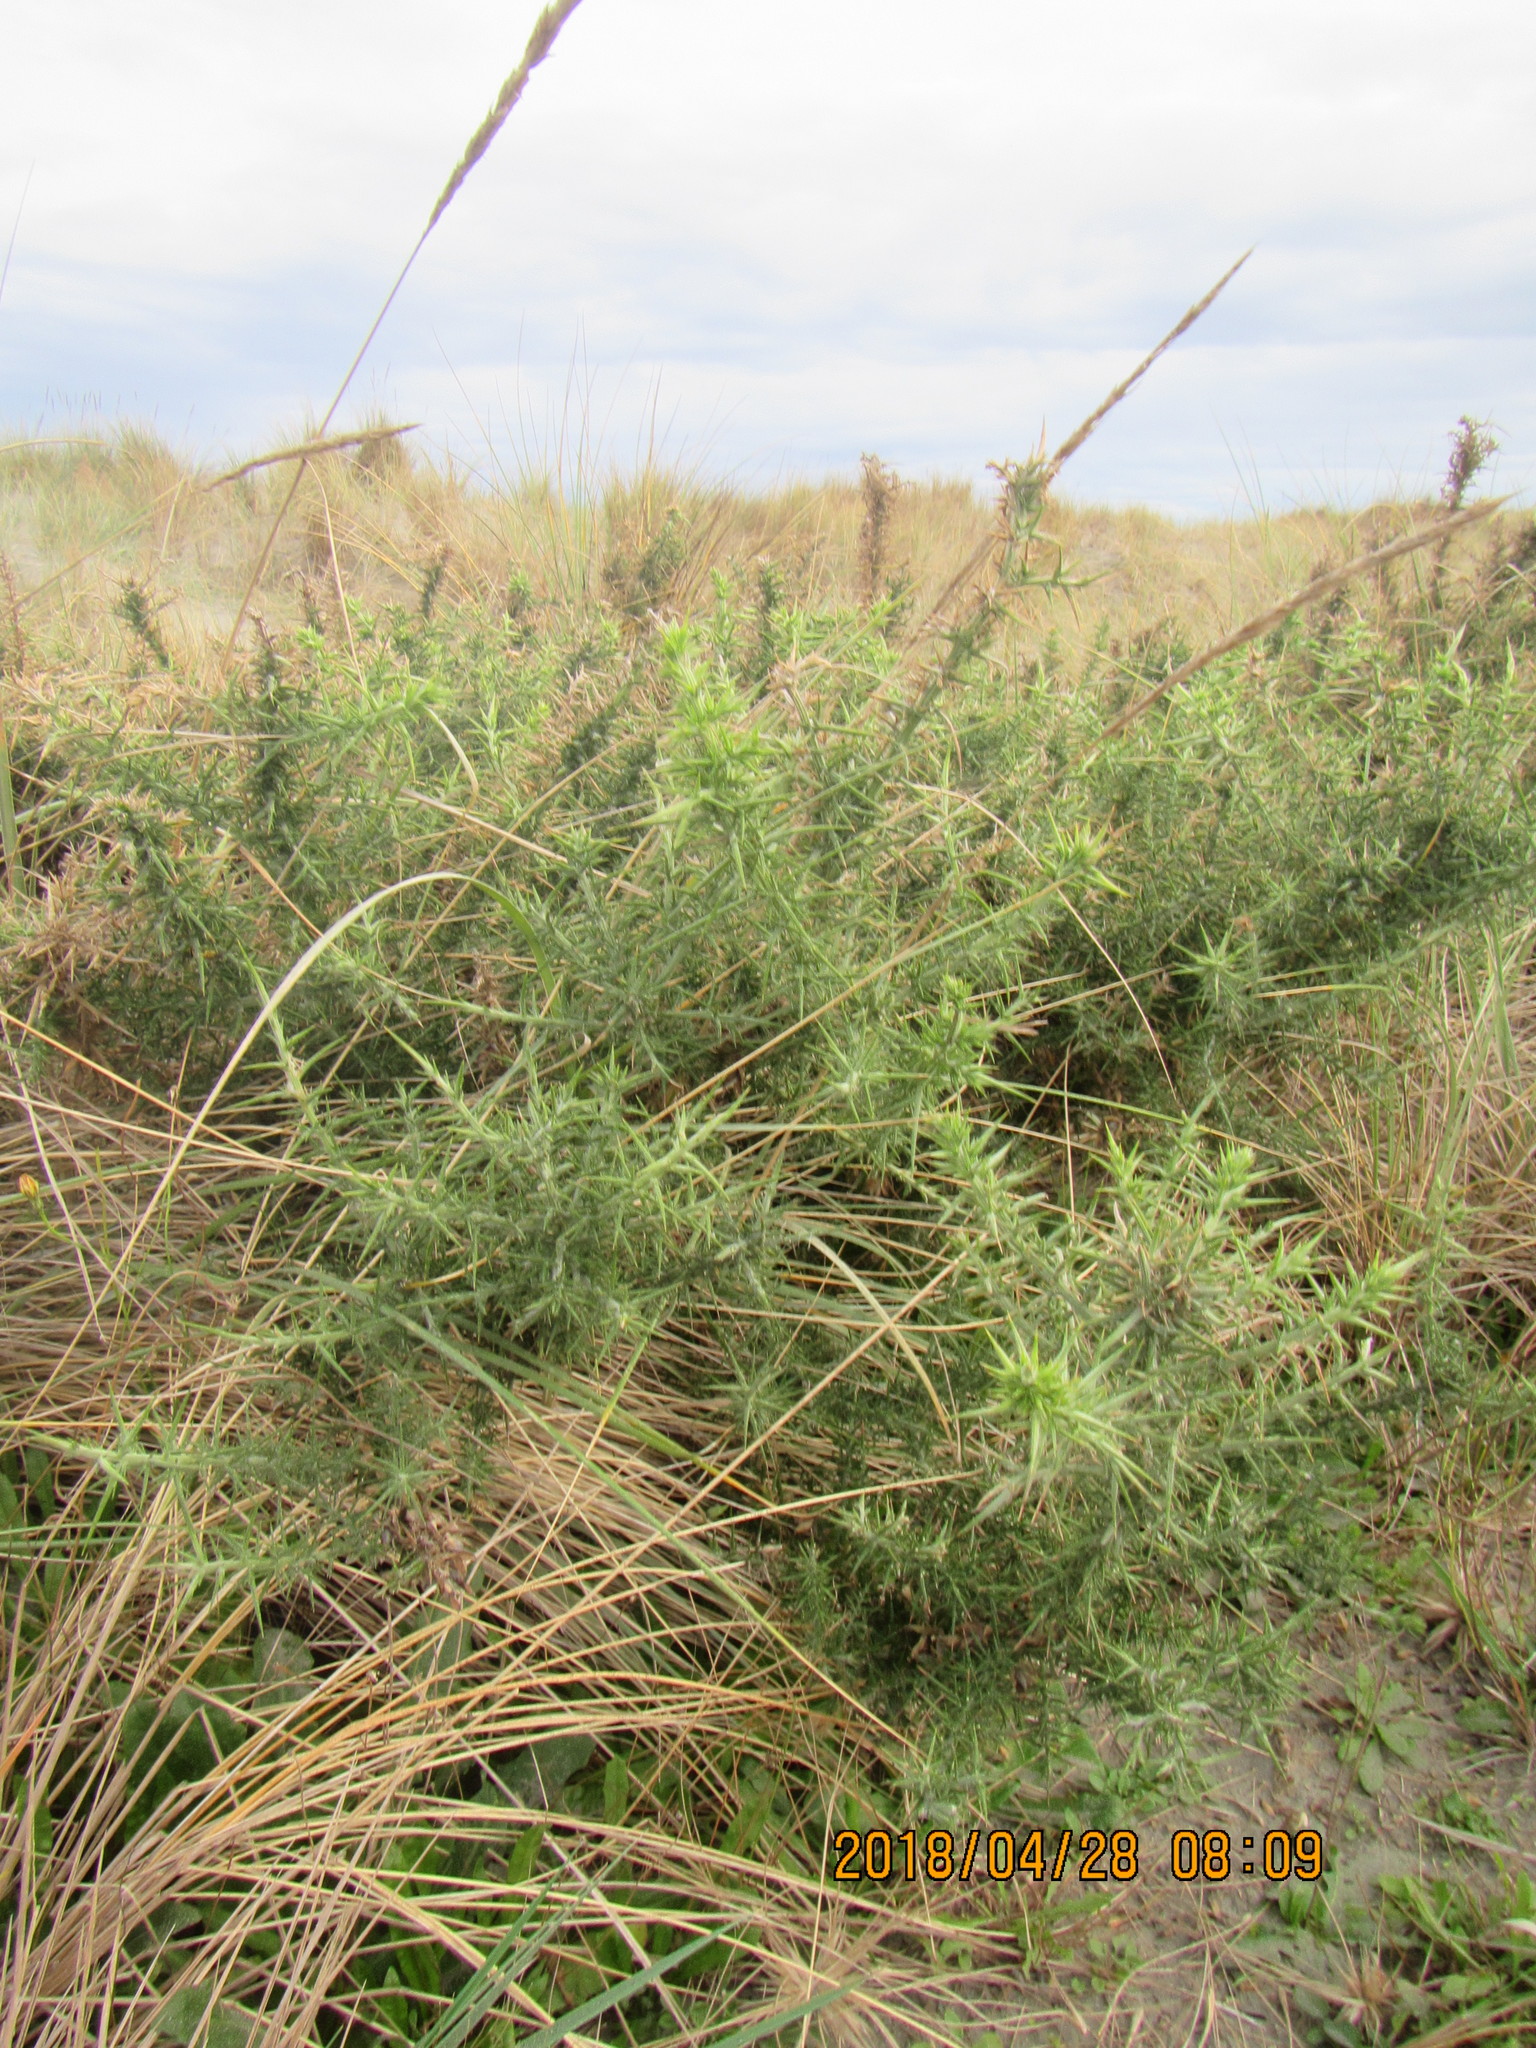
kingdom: Plantae
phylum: Tracheophyta
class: Magnoliopsida
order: Fabales
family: Fabaceae
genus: Ulex
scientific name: Ulex europaeus
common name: Common gorse
